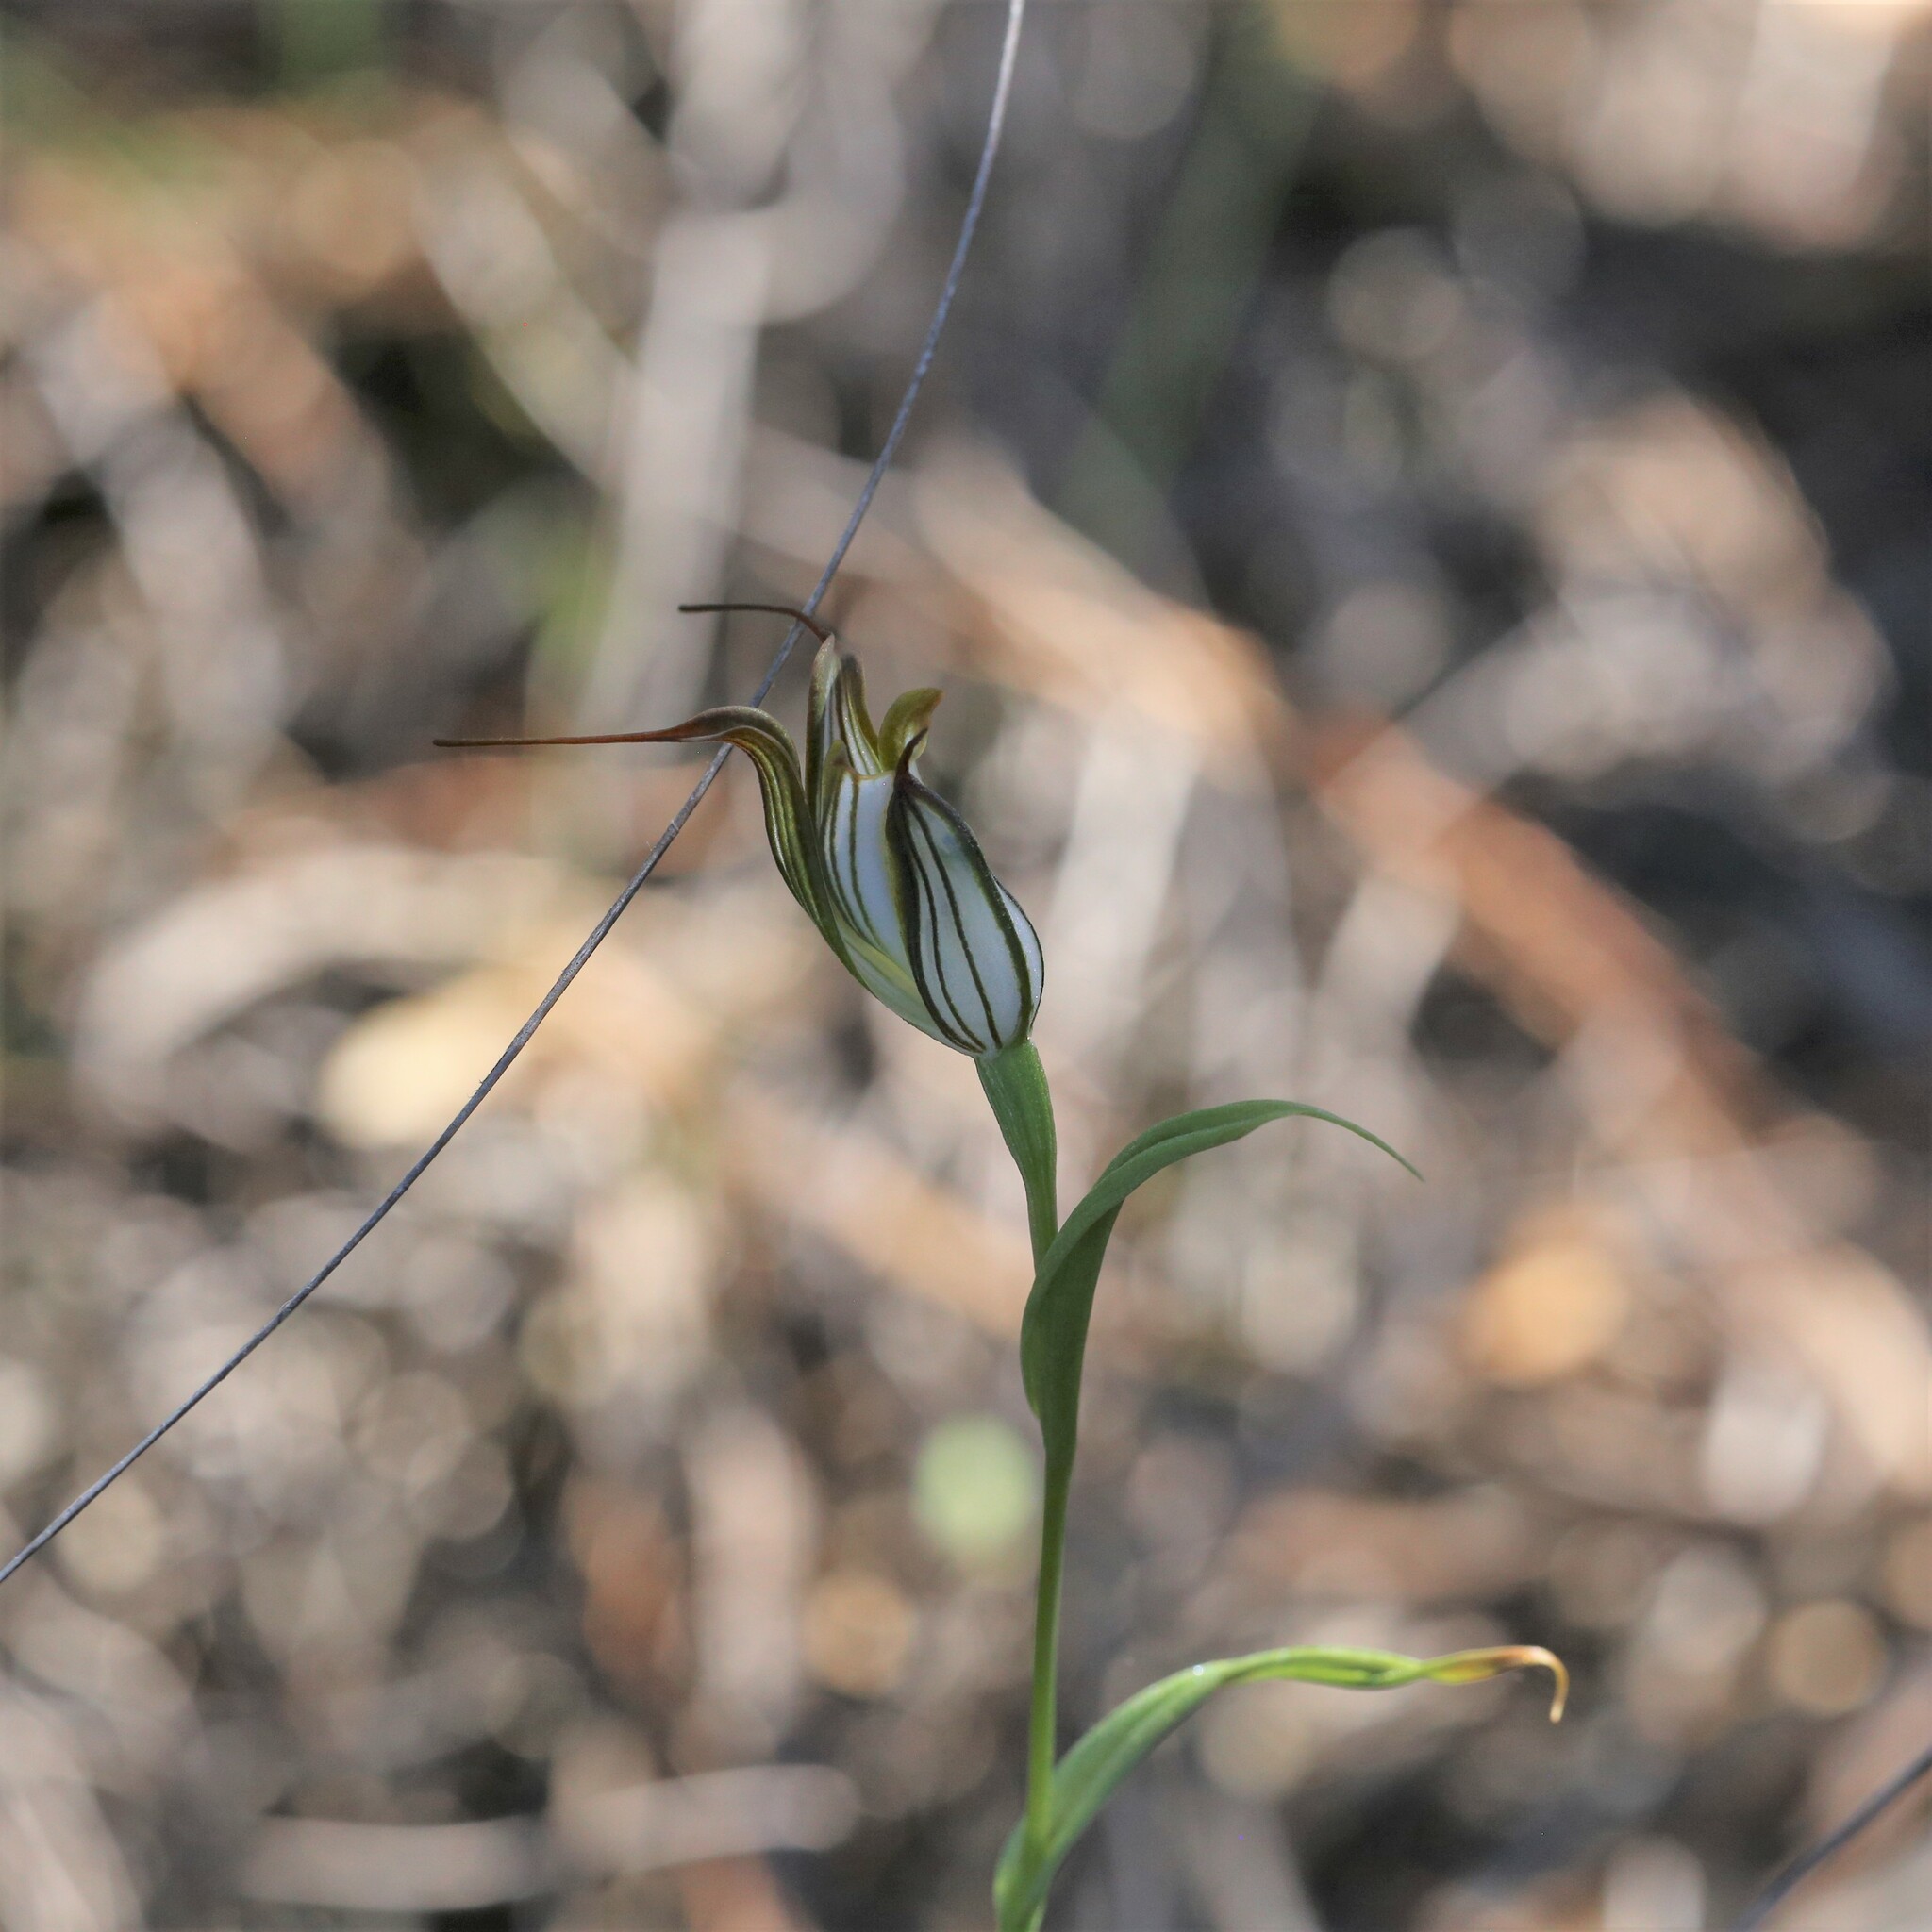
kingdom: Plantae
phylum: Tracheophyta
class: Liliopsida
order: Asparagales
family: Orchidaceae
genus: Pterostylis
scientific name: Pterostylis recurva
